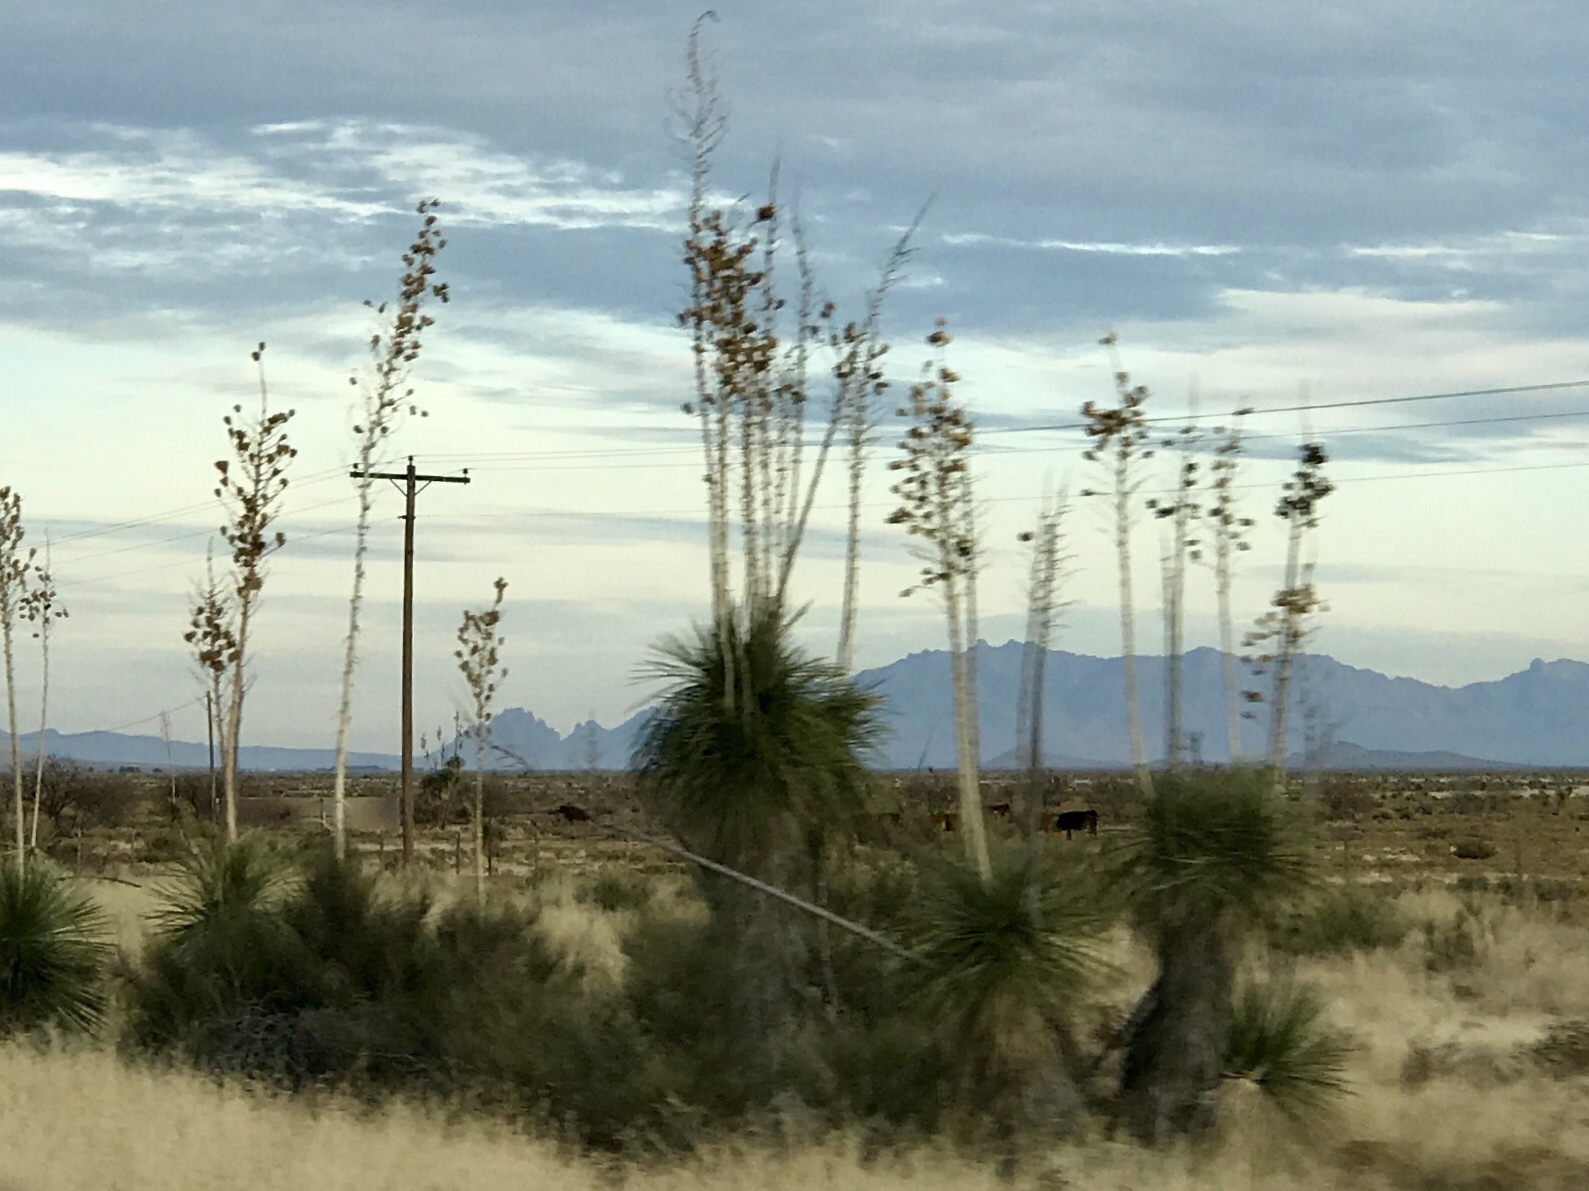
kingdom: Plantae
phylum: Tracheophyta
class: Liliopsida
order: Asparagales
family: Asparagaceae
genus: Yucca
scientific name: Yucca elata
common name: Palmella
